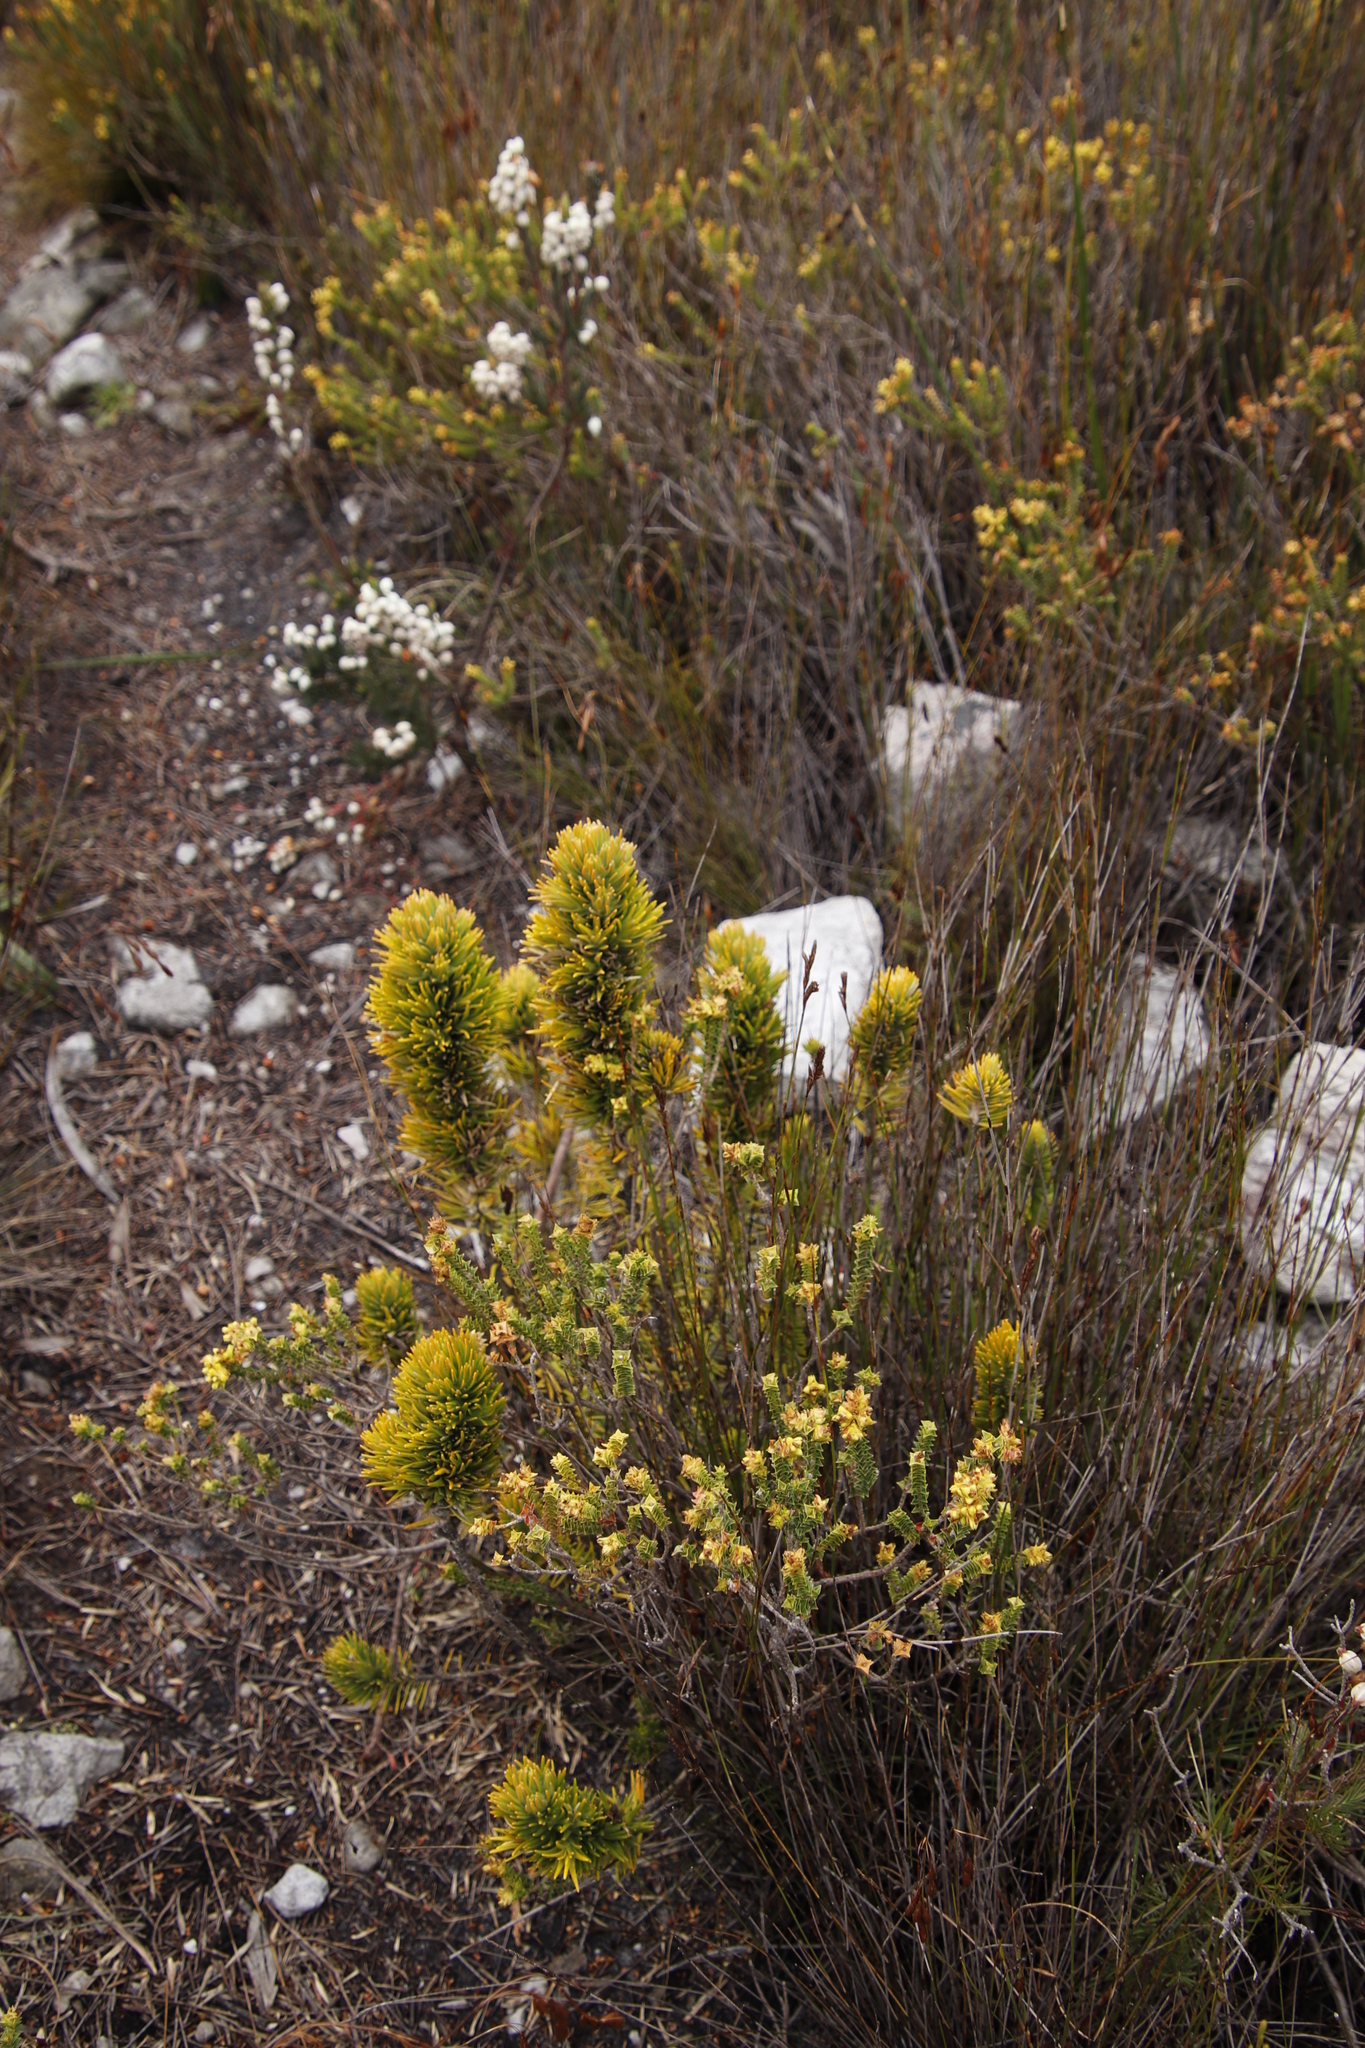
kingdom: Plantae
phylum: Tracheophyta
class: Magnoliopsida
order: Lamiales
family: Stilbaceae
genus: Retzia
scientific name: Retzia capensis
